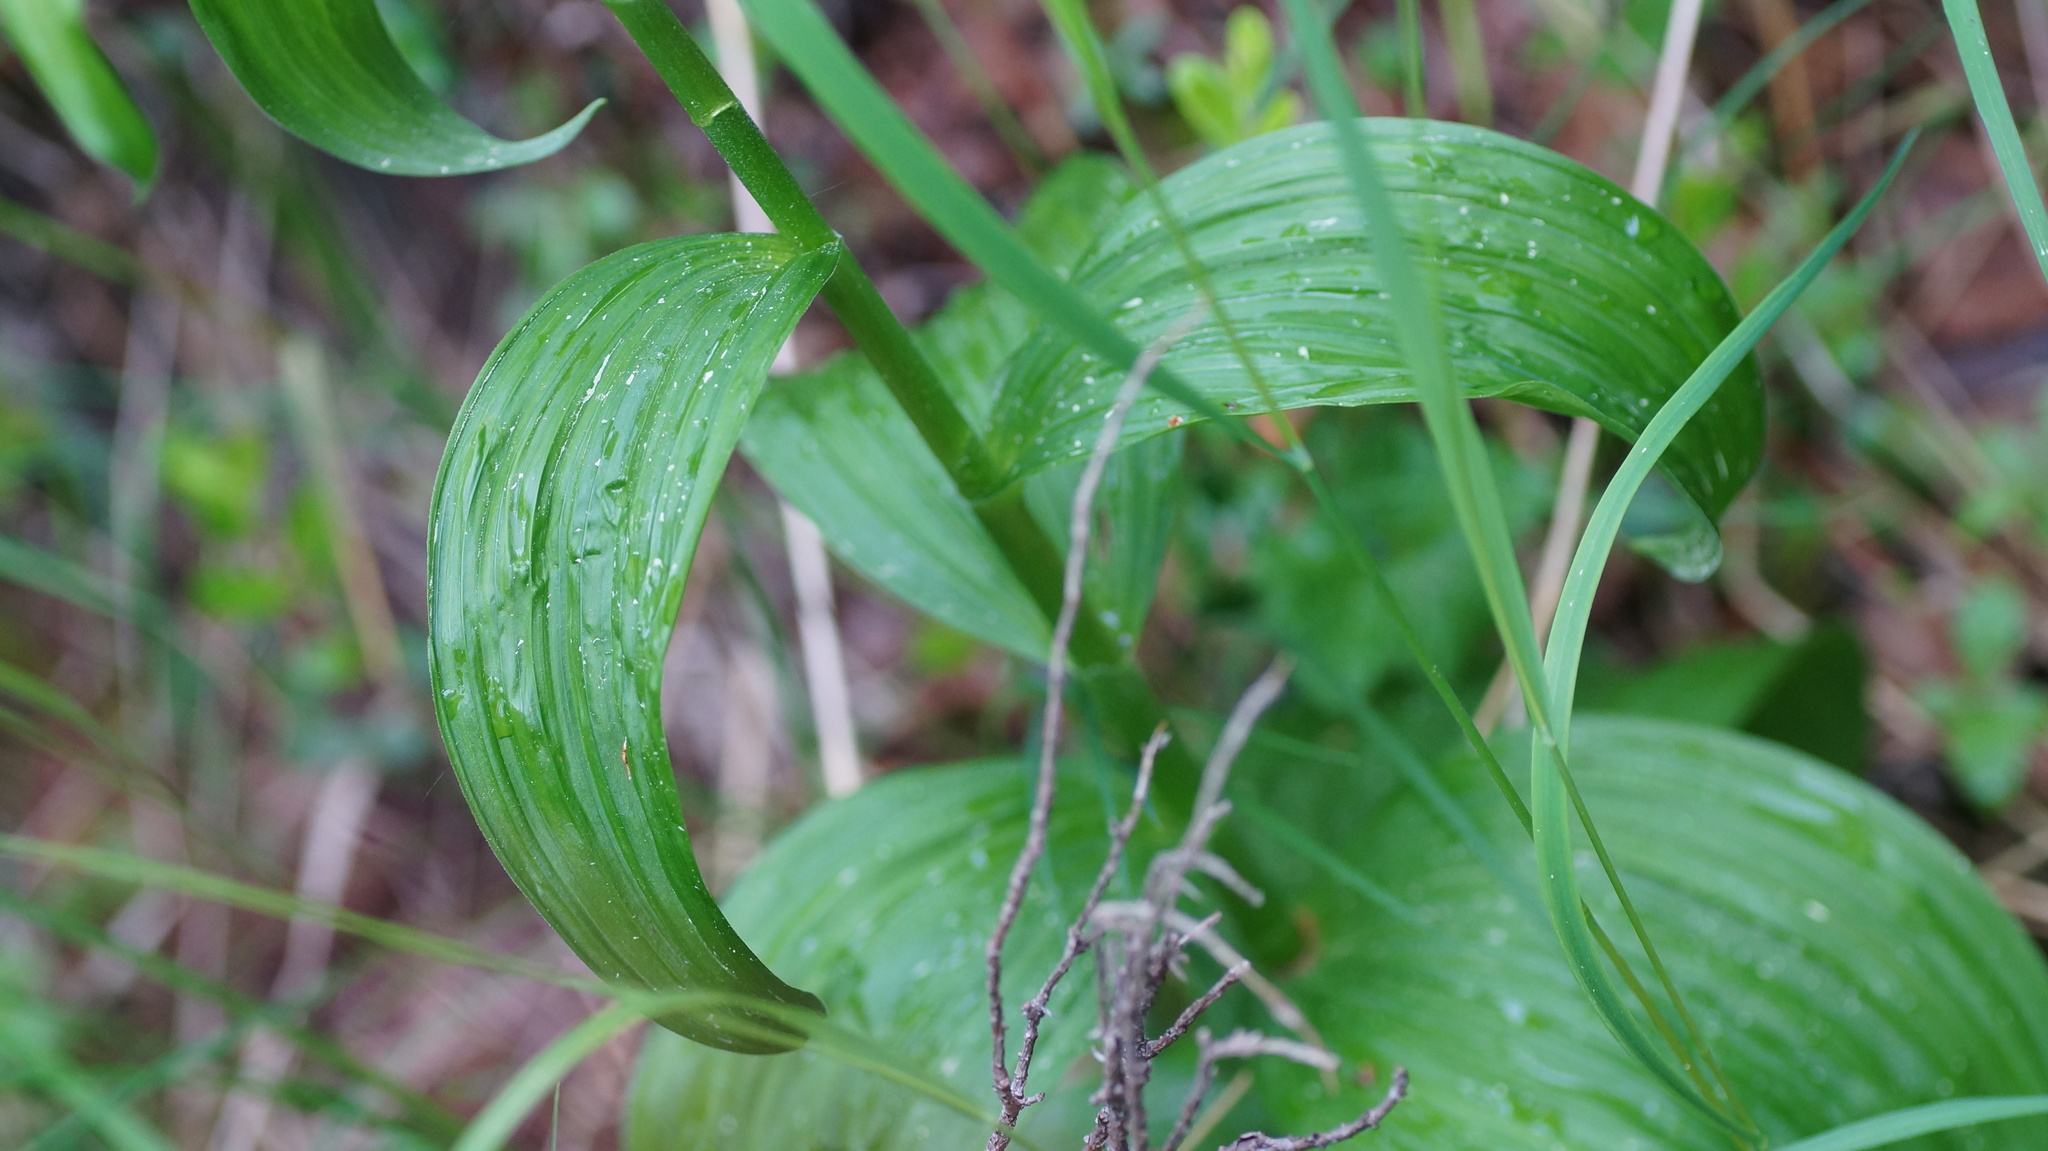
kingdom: Plantae
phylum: Tracheophyta
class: Liliopsida
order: Liliales
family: Melanthiaceae
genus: Veratrum
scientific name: Veratrum lobelianum
